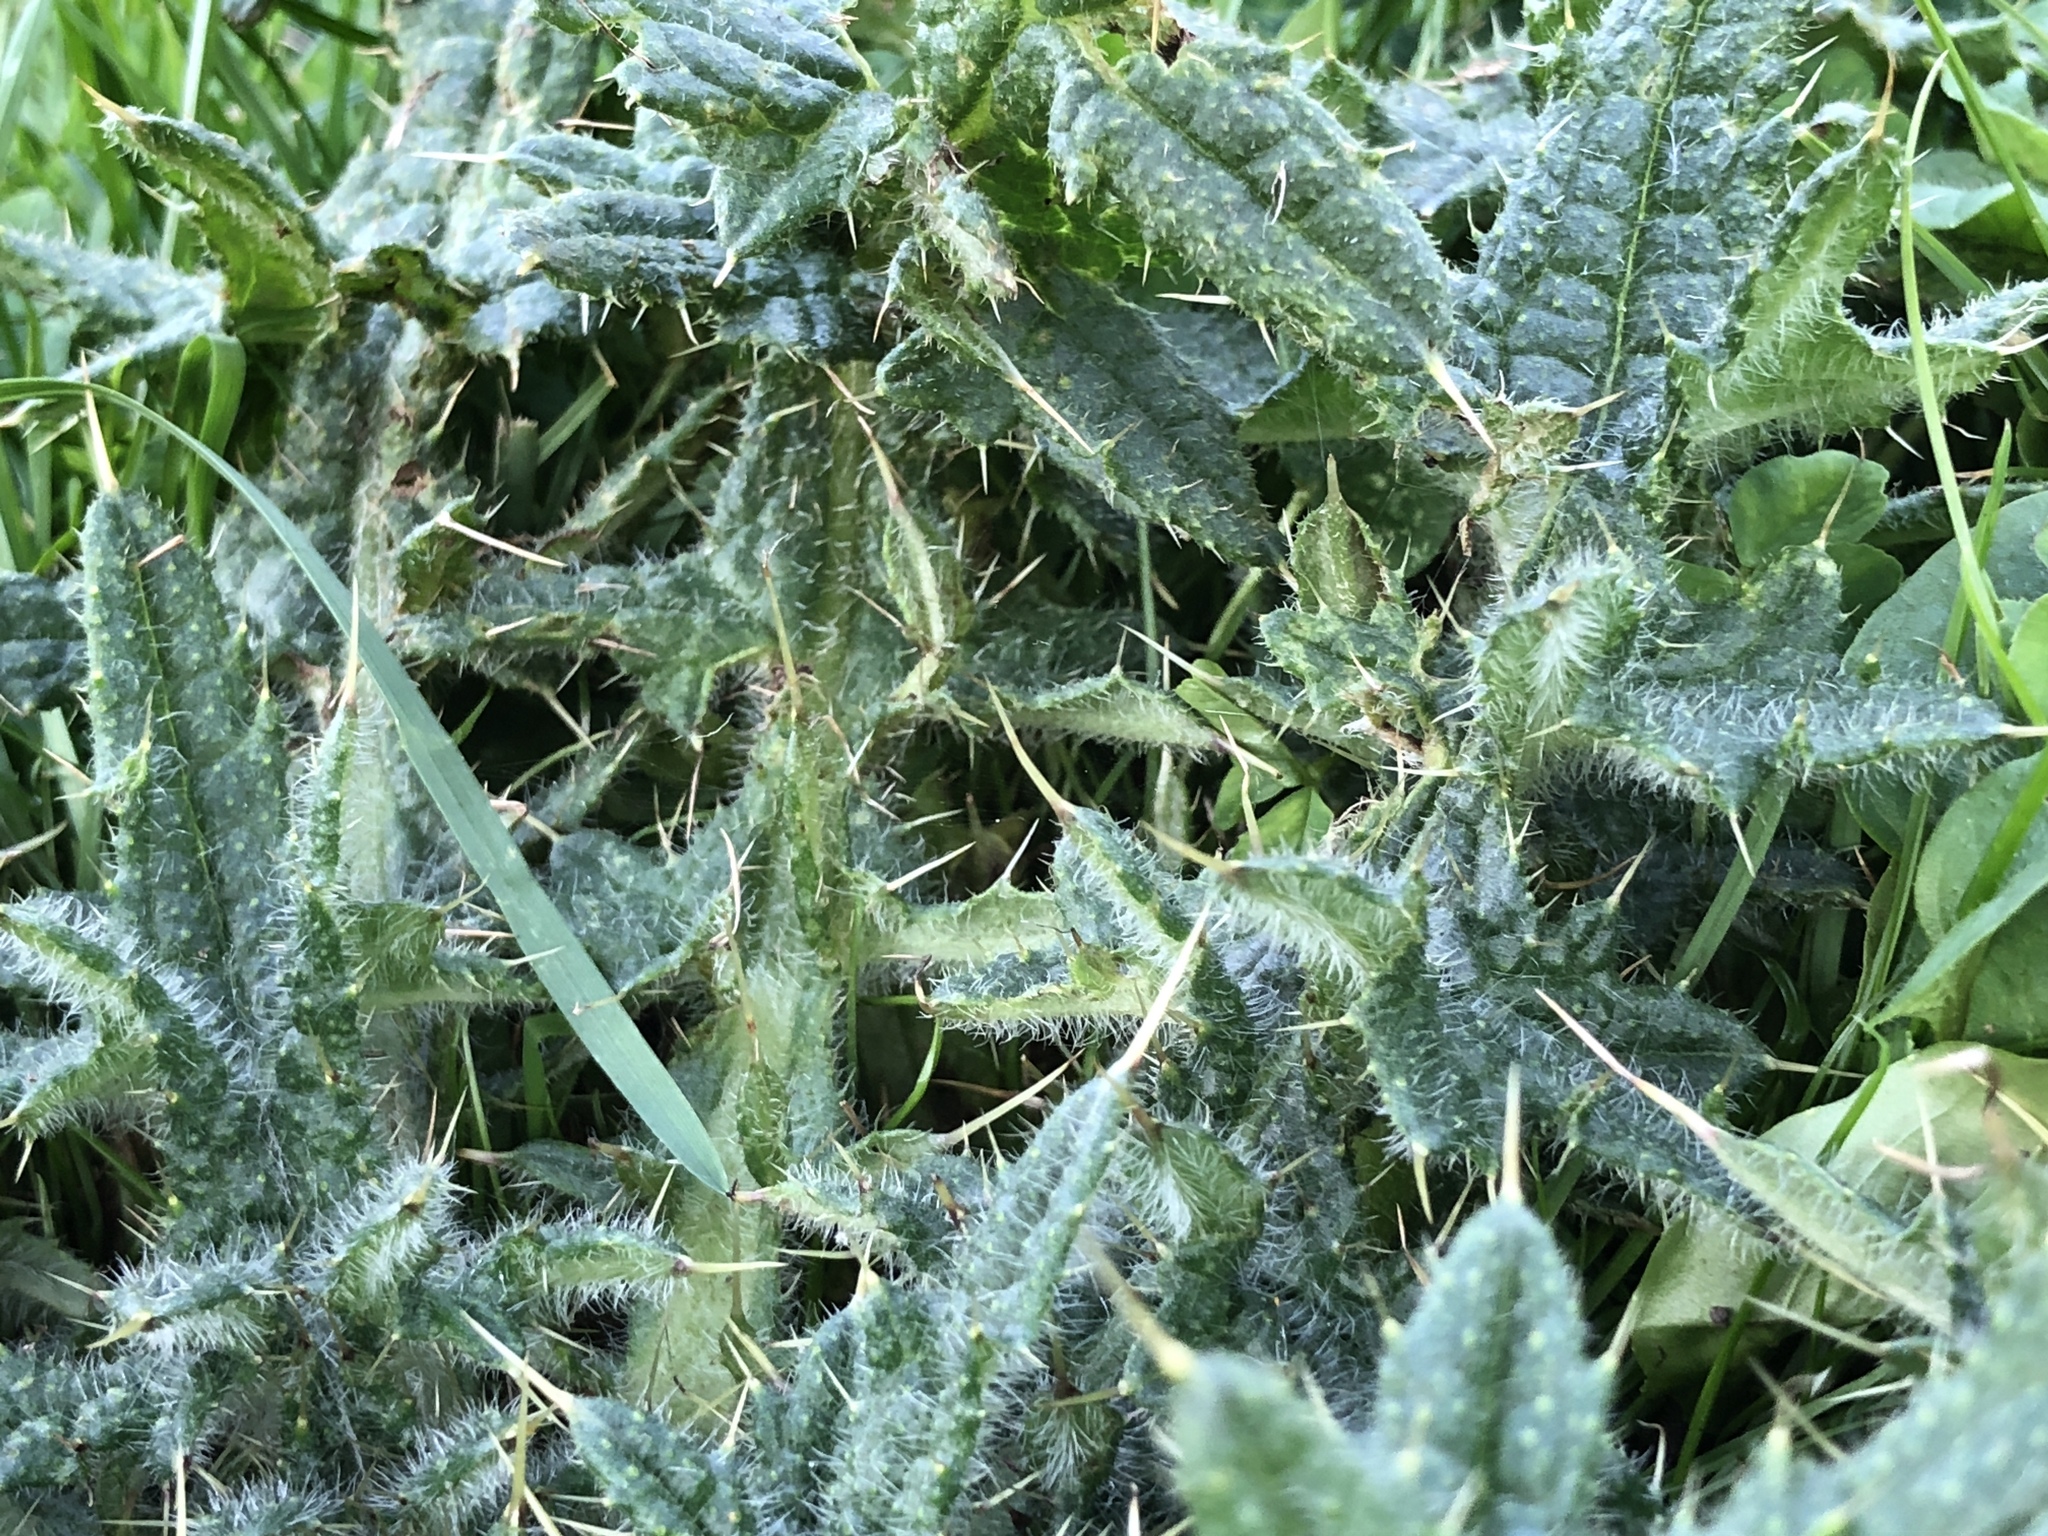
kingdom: Plantae
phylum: Tracheophyta
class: Magnoliopsida
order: Asterales
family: Asteraceae
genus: Cirsium
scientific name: Cirsium vulgare
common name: Bull thistle
